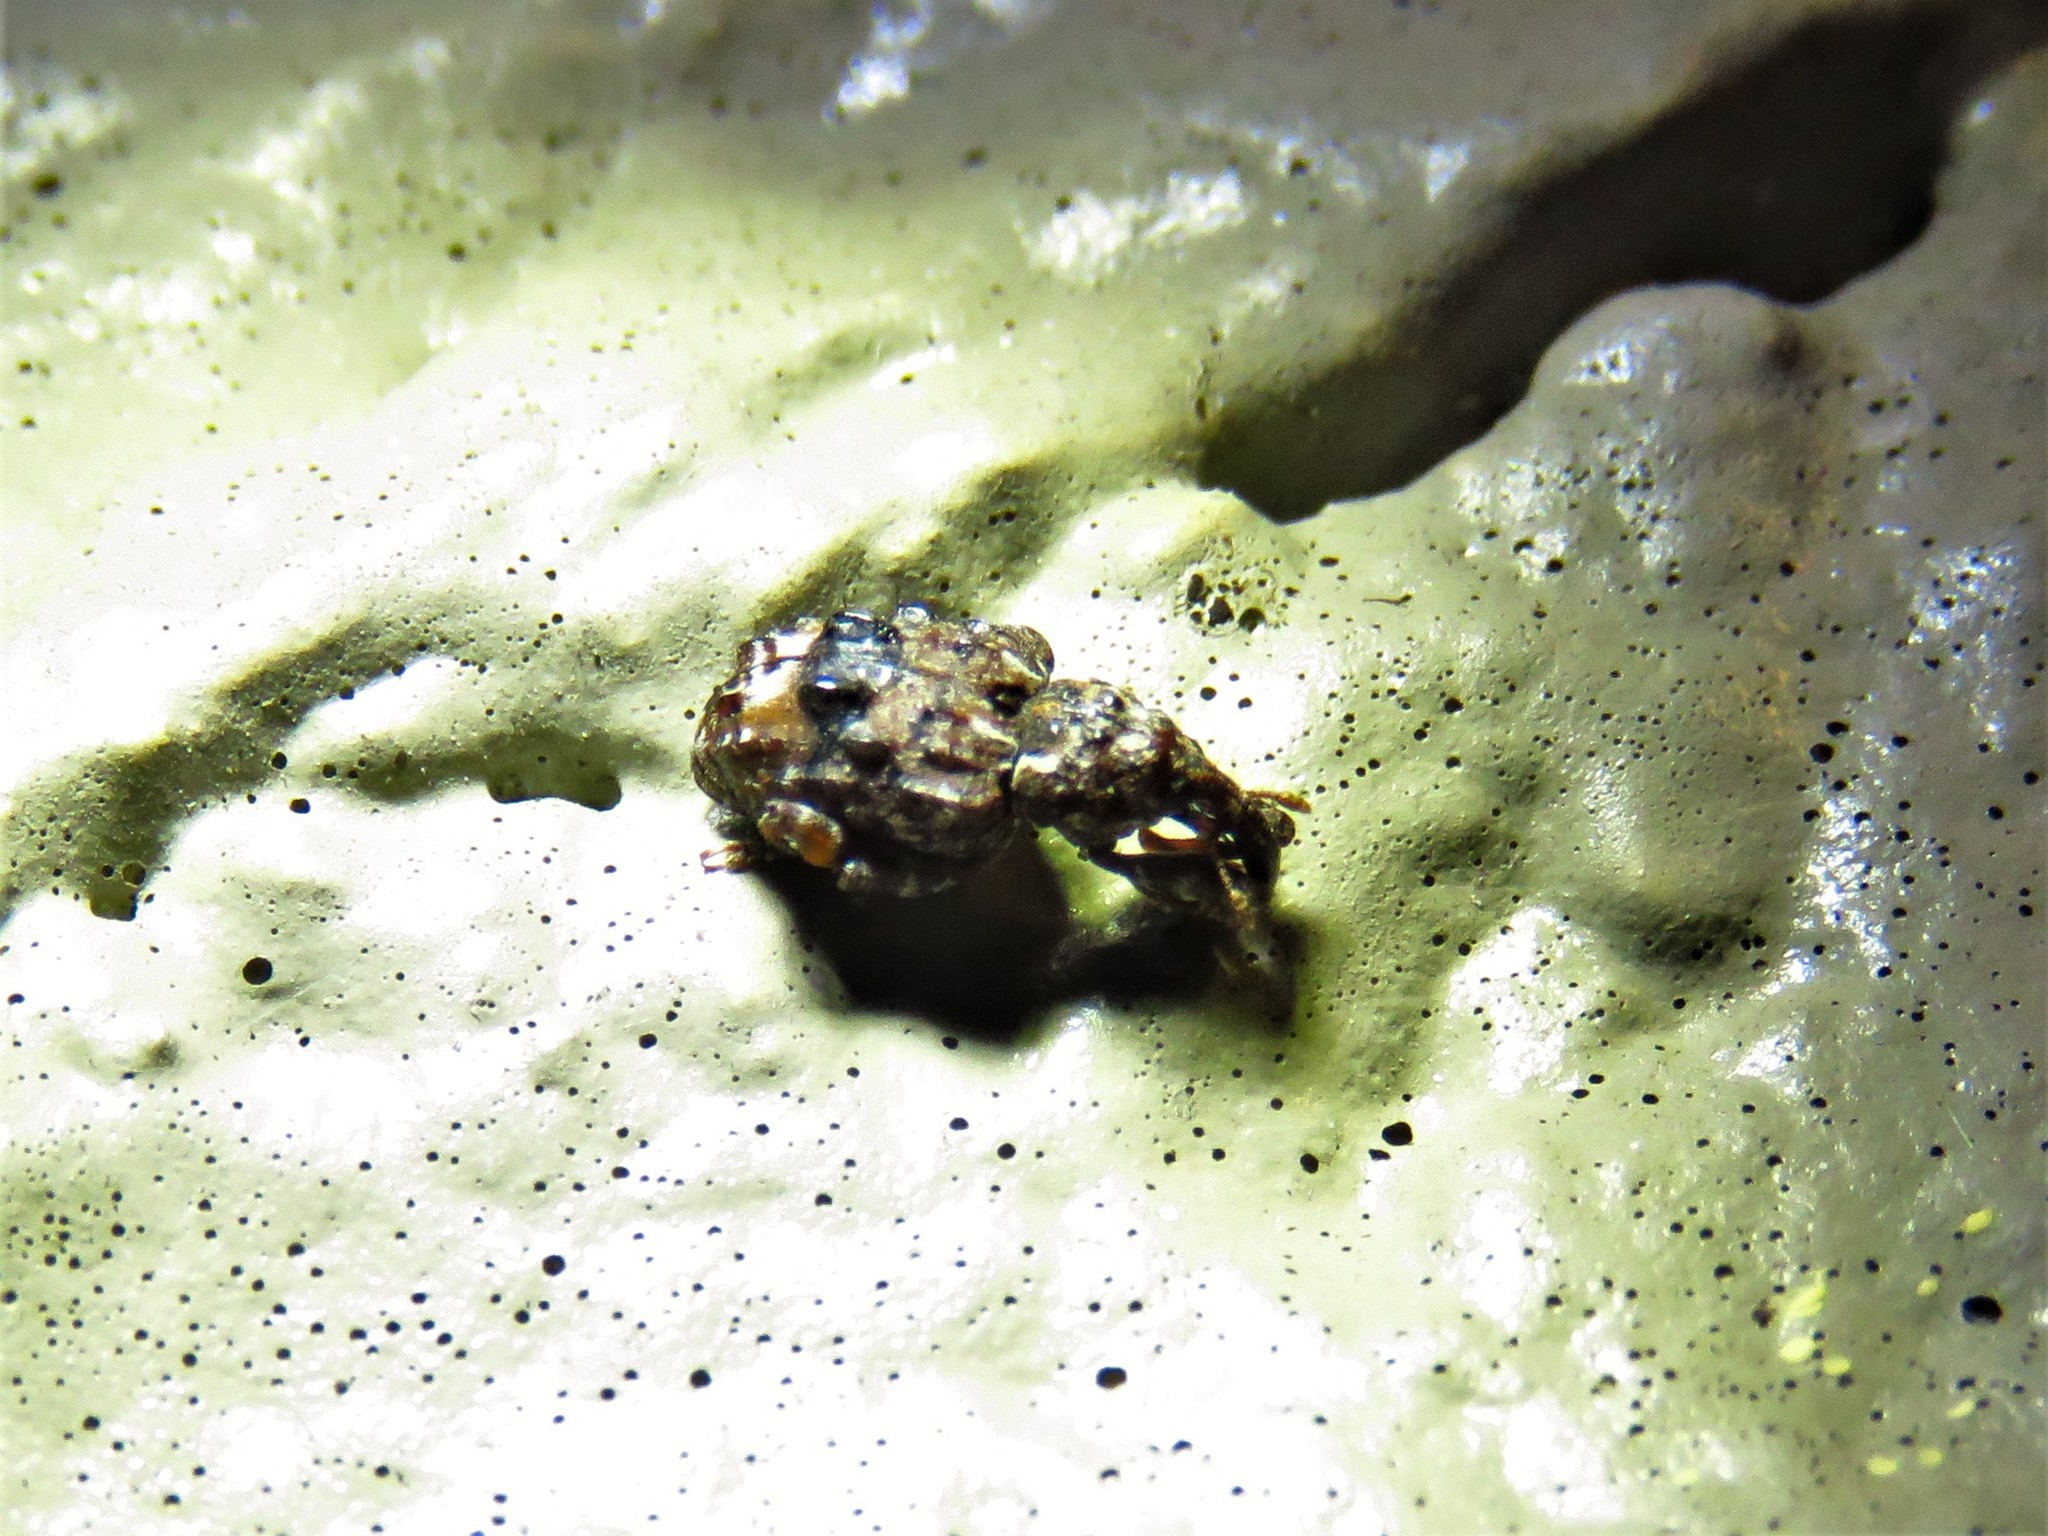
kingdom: Animalia
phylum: Arthropoda
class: Insecta
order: Coleoptera
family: Curculionidae
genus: Conotrachelus
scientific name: Conotrachelus nenuphar
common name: Plum curculio
